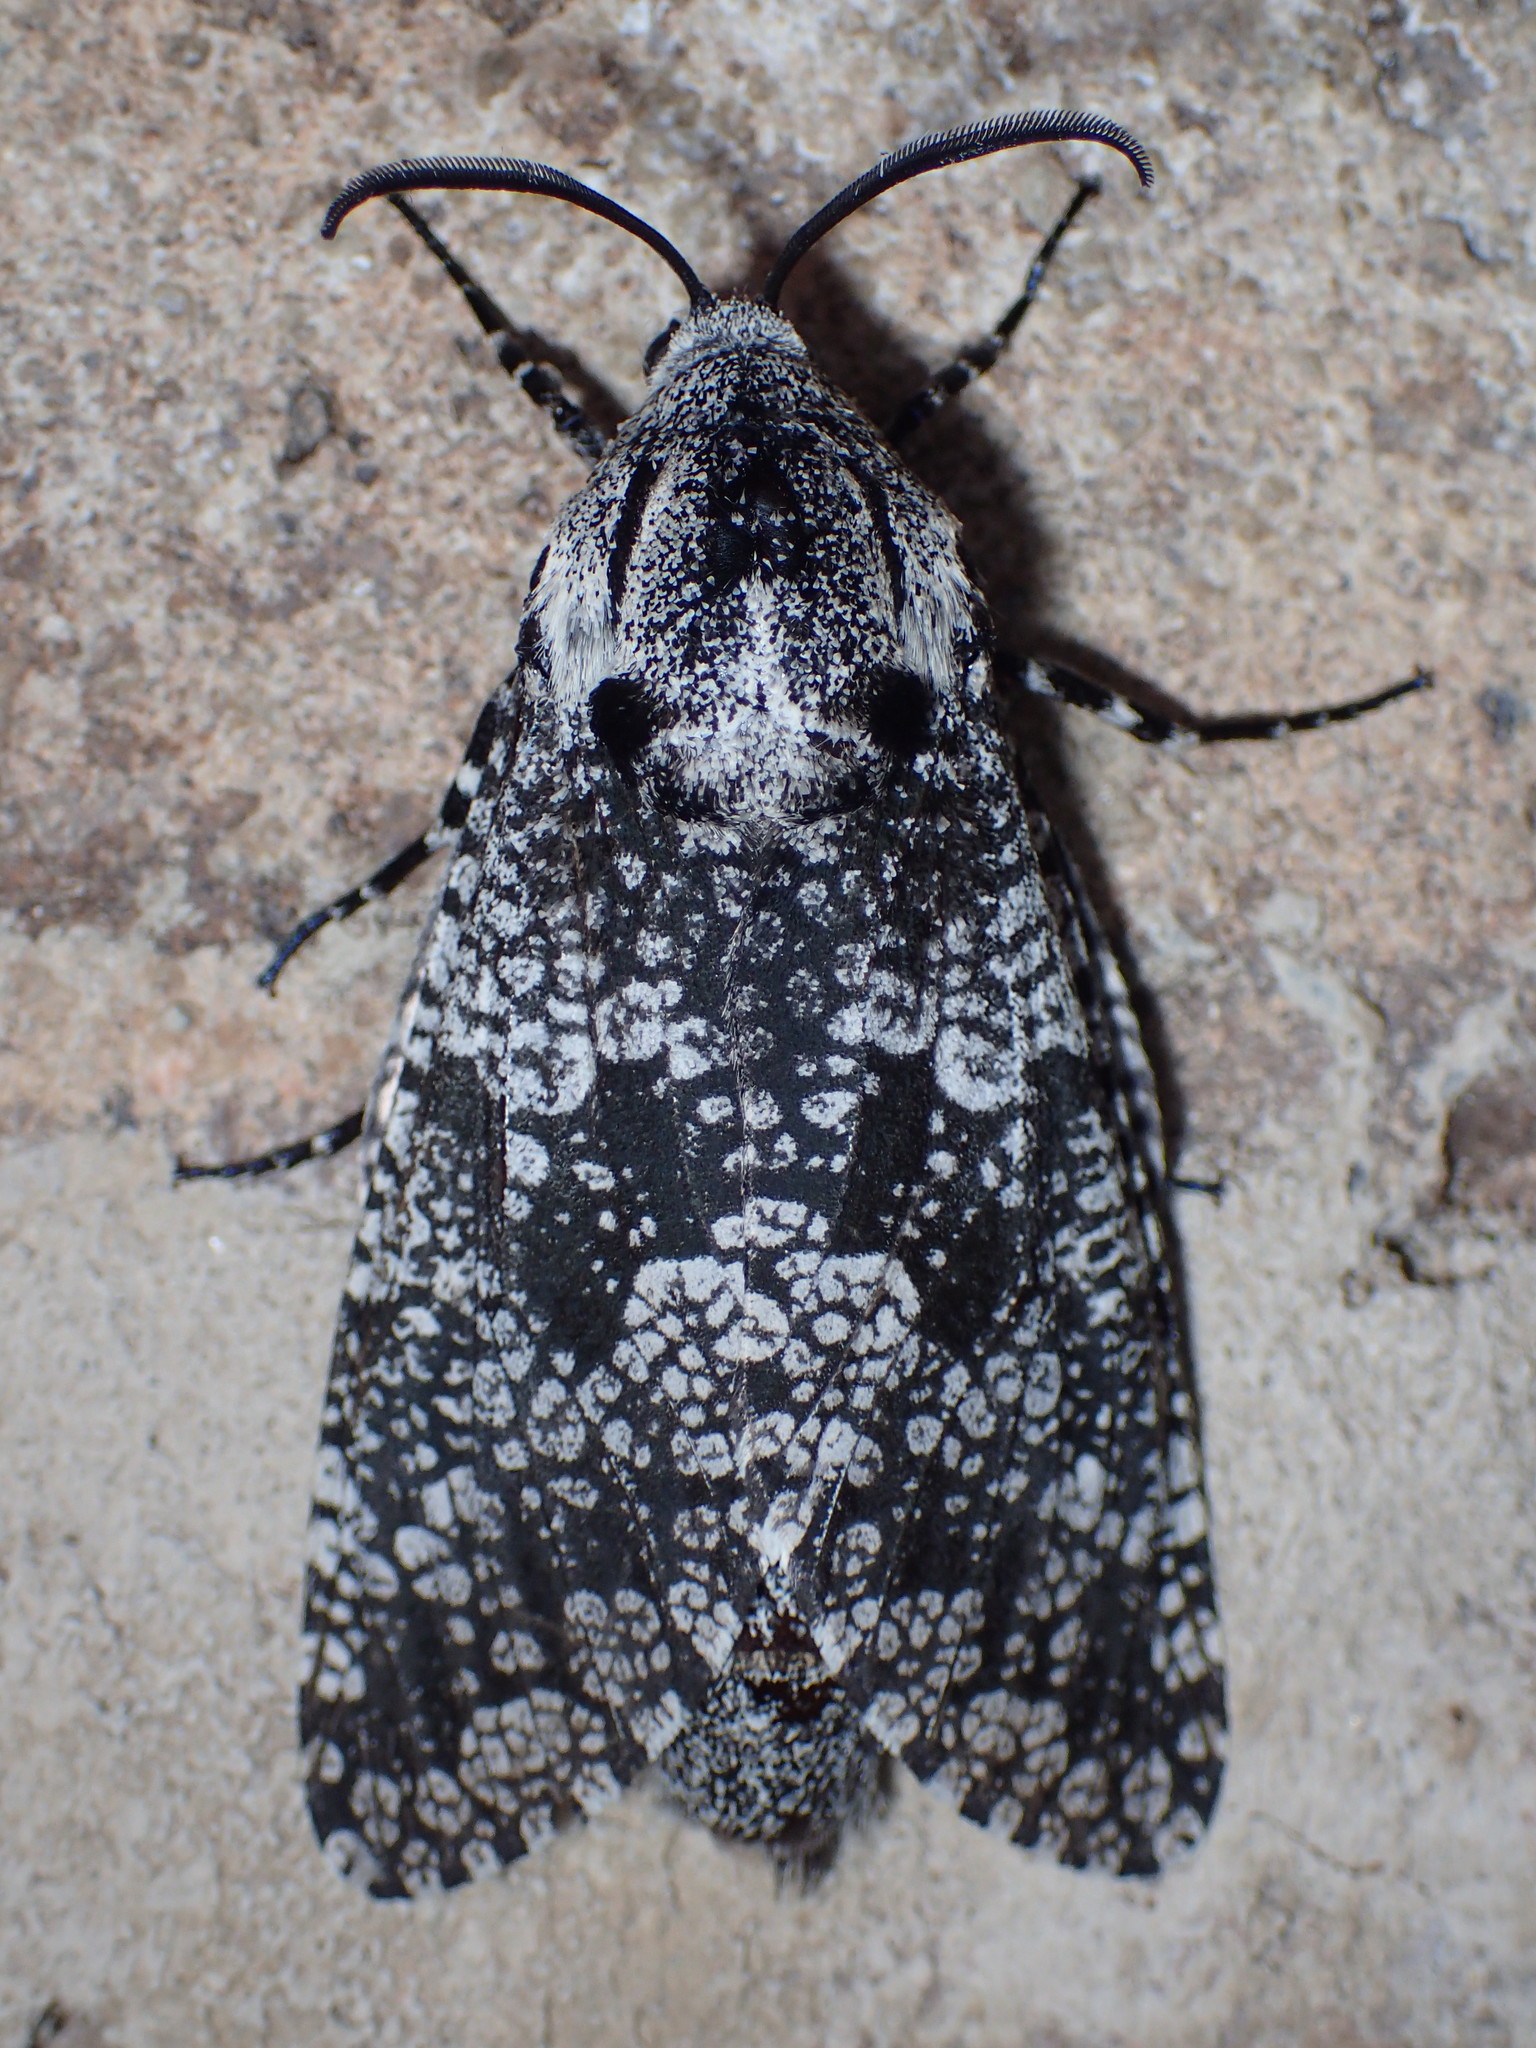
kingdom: Animalia
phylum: Arthropoda
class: Insecta
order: Lepidoptera
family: Cossidae
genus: Prionoxystus
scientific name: Prionoxystus robiniae
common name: Carpenterworm
